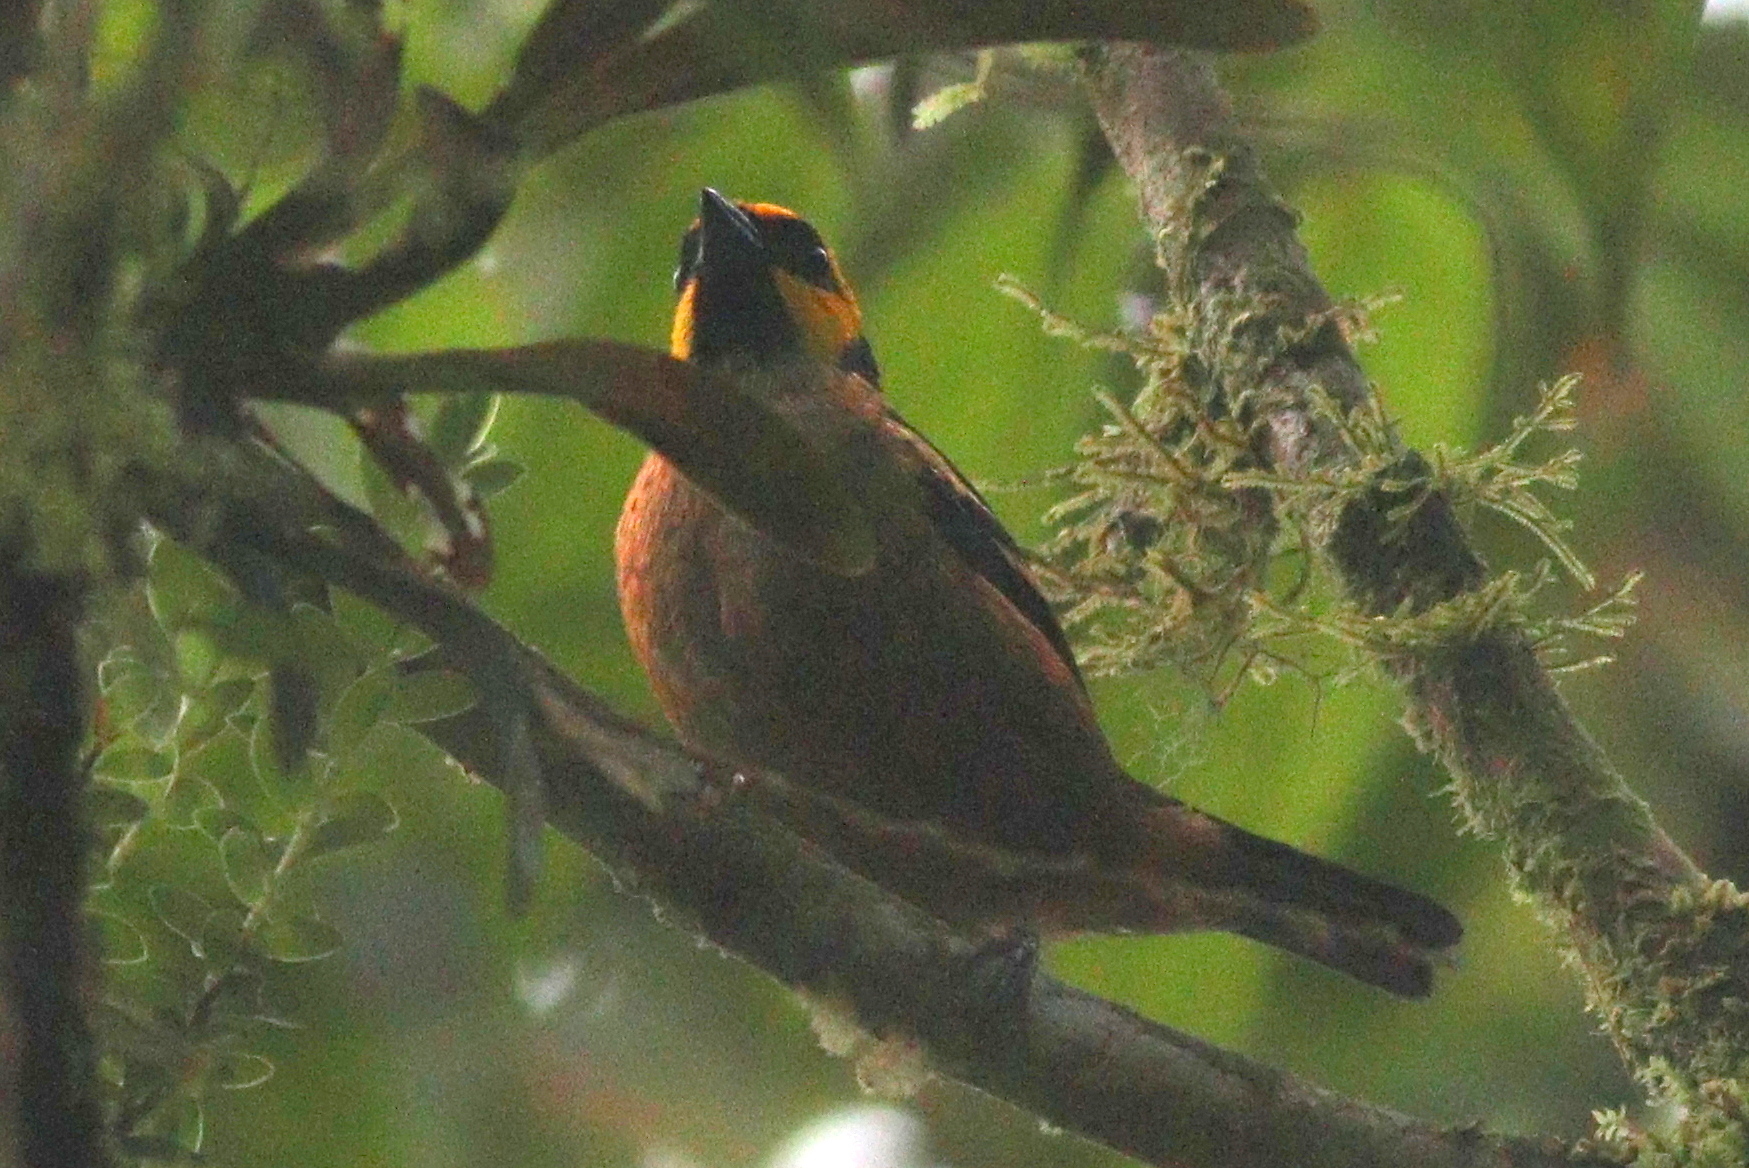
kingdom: Animalia
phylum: Chordata
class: Aves
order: Passeriformes
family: Thraupidae
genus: Tangara
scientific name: Tangara parzudakii
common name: Flame-faced tanager
